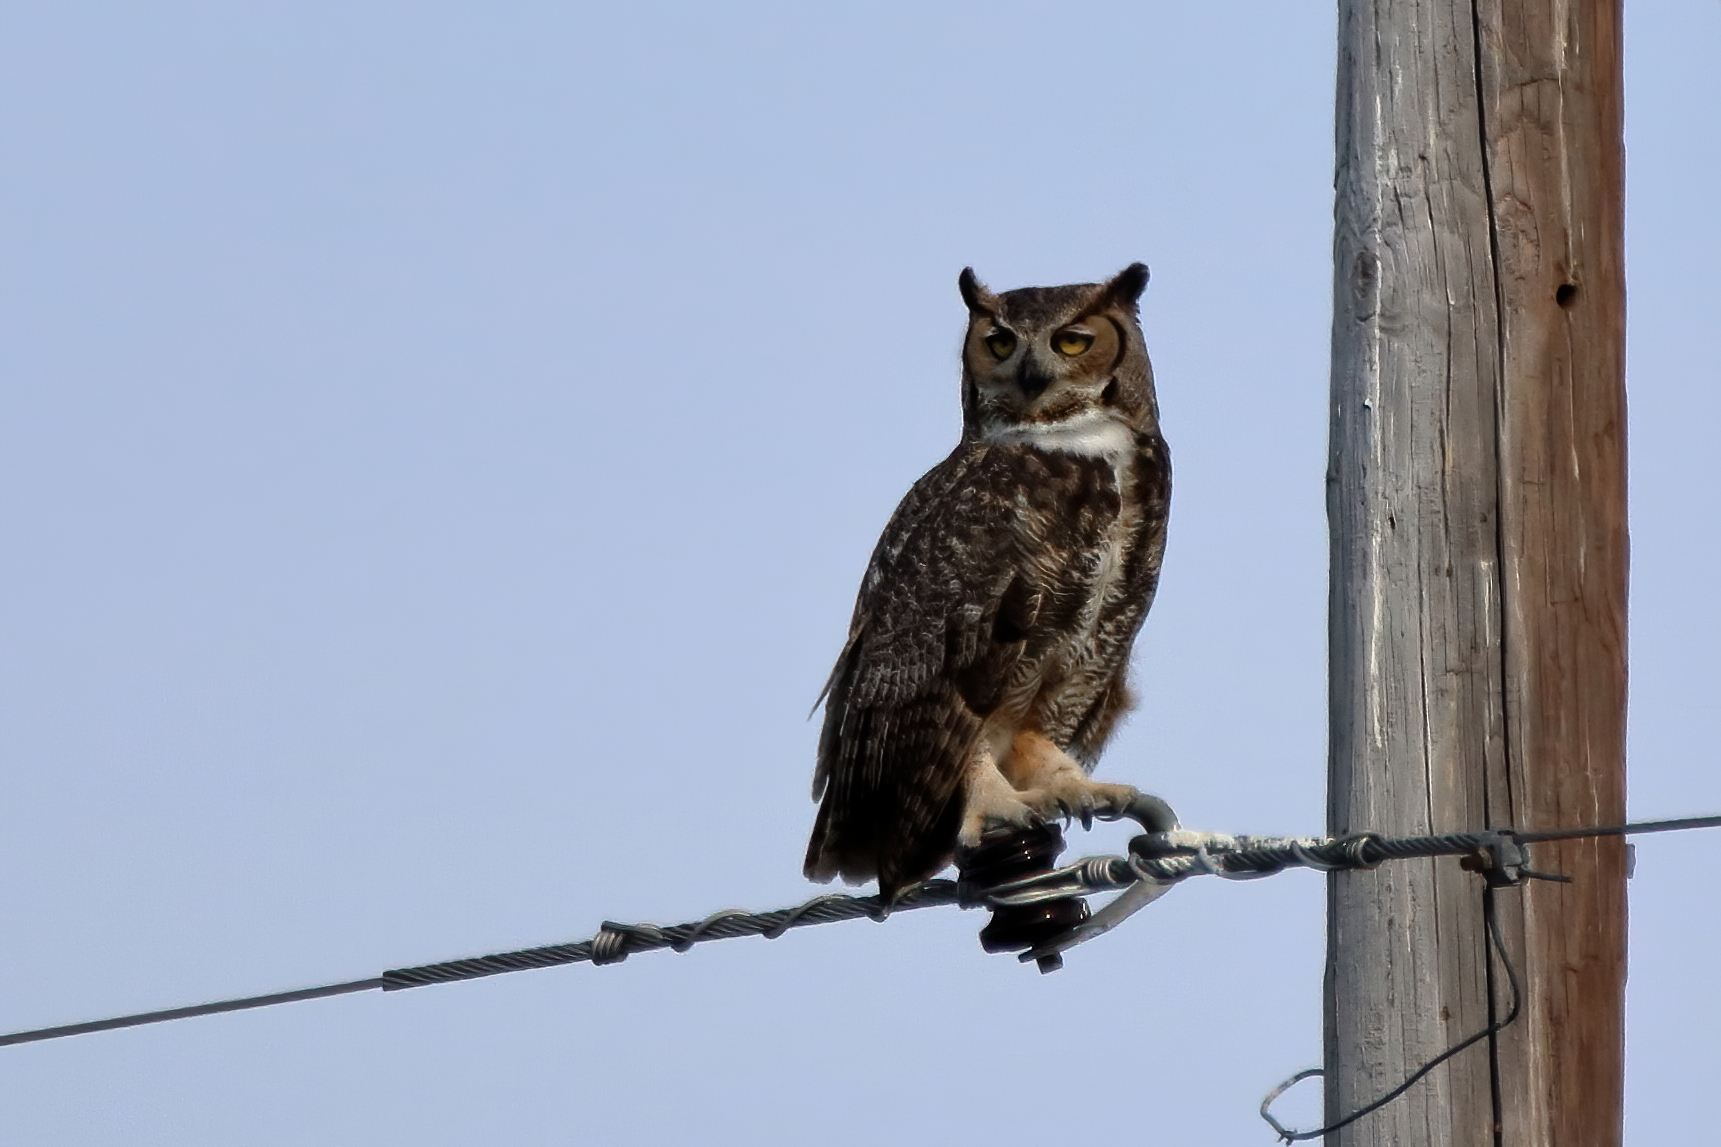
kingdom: Animalia
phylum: Chordata
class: Aves
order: Strigiformes
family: Strigidae
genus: Bubo
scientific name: Bubo virginianus
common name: Great horned owl
